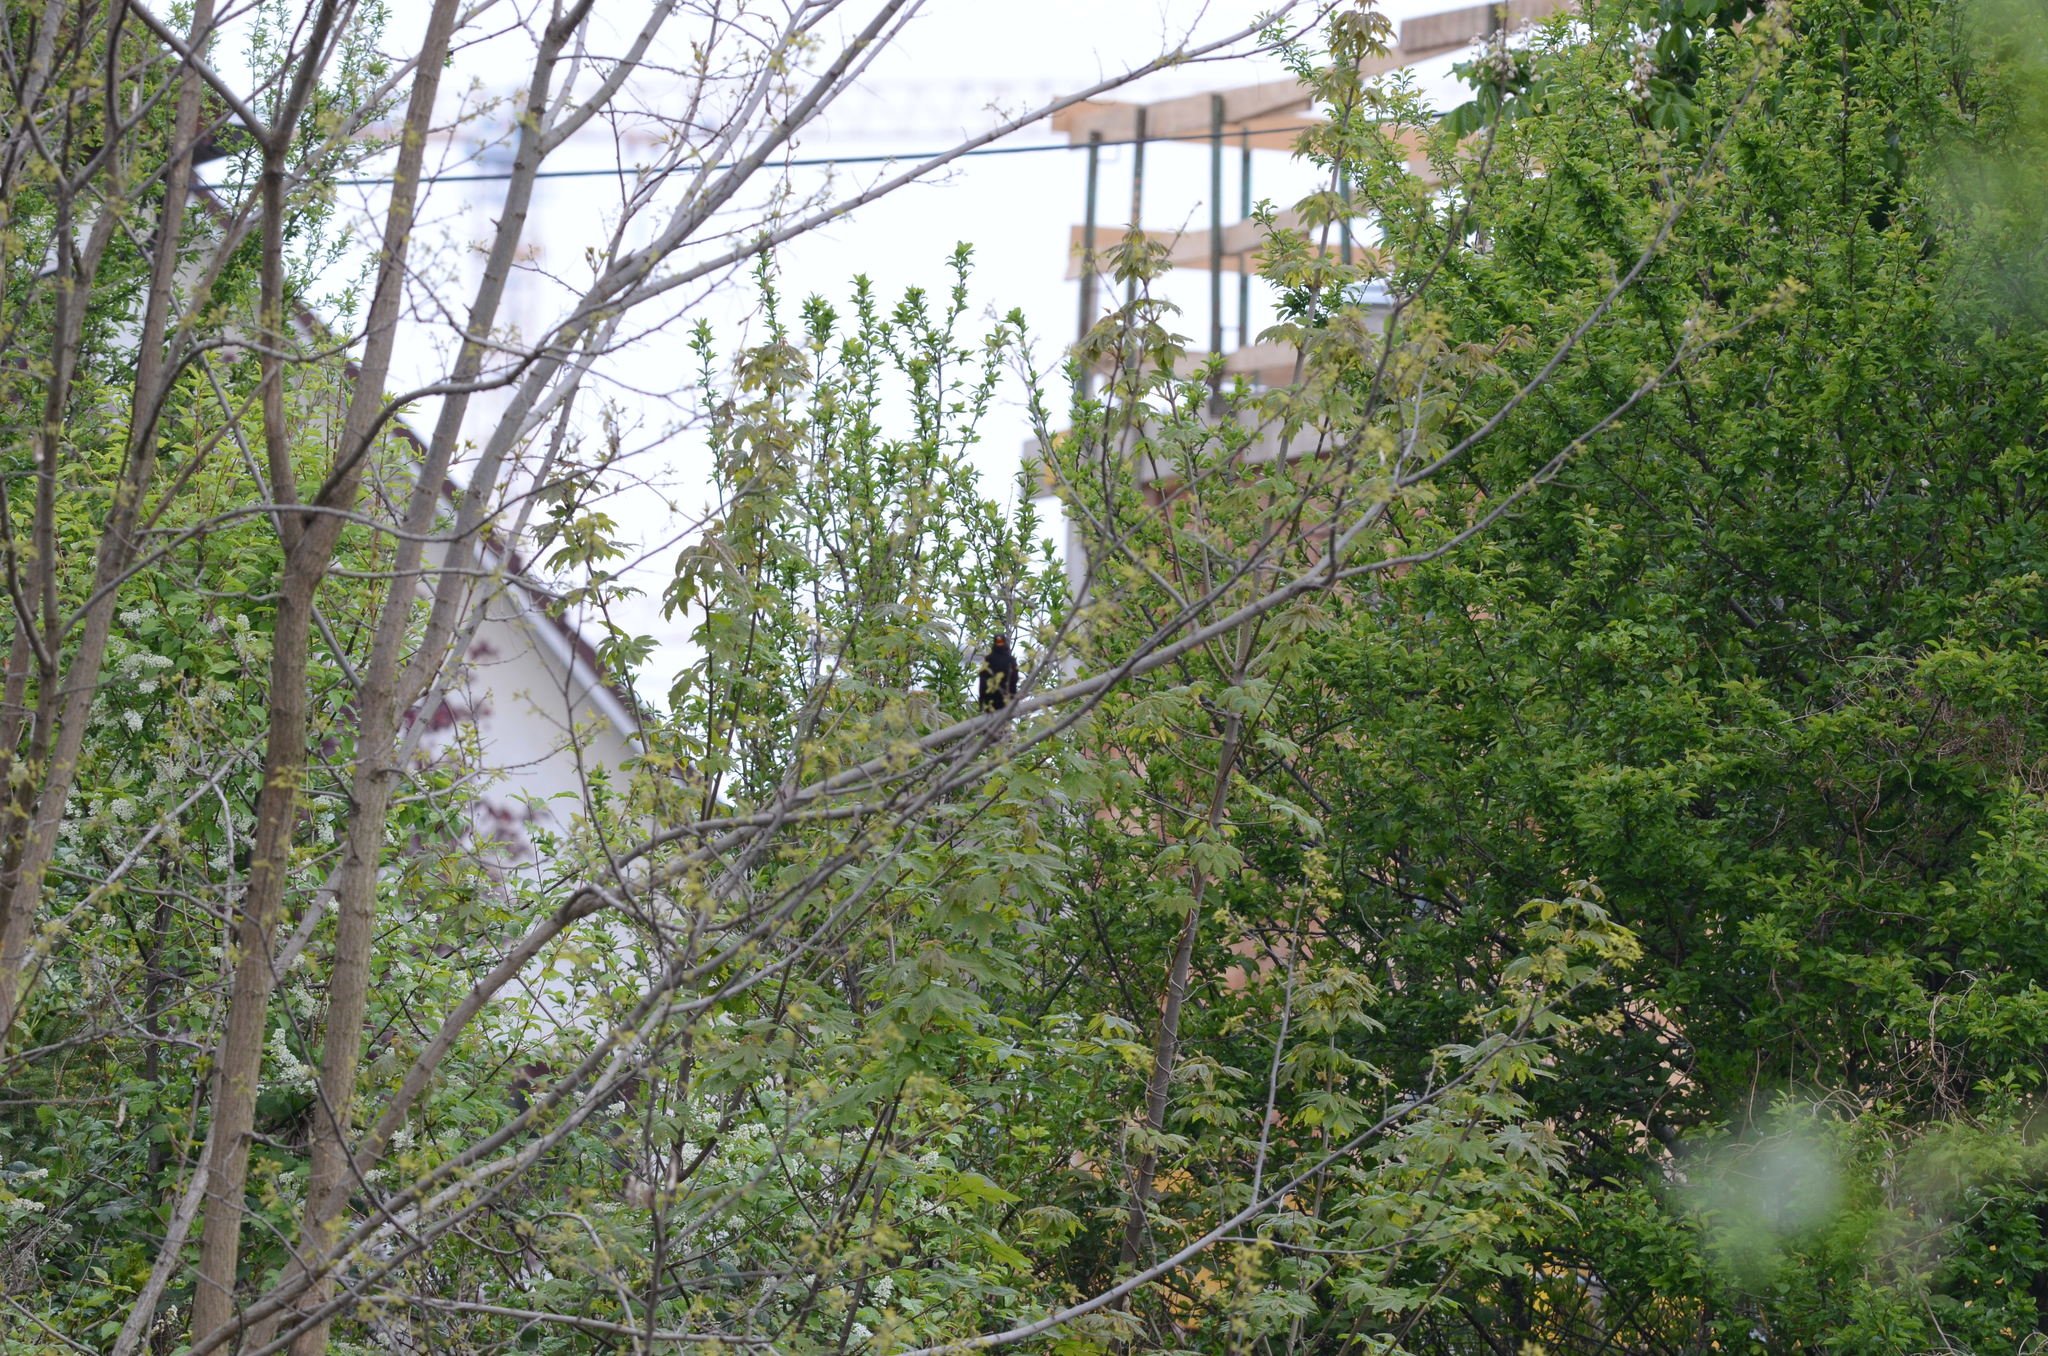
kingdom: Animalia
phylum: Chordata
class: Aves
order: Passeriformes
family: Turdidae
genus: Turdus
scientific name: Turdus merula
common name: Common blackbird
